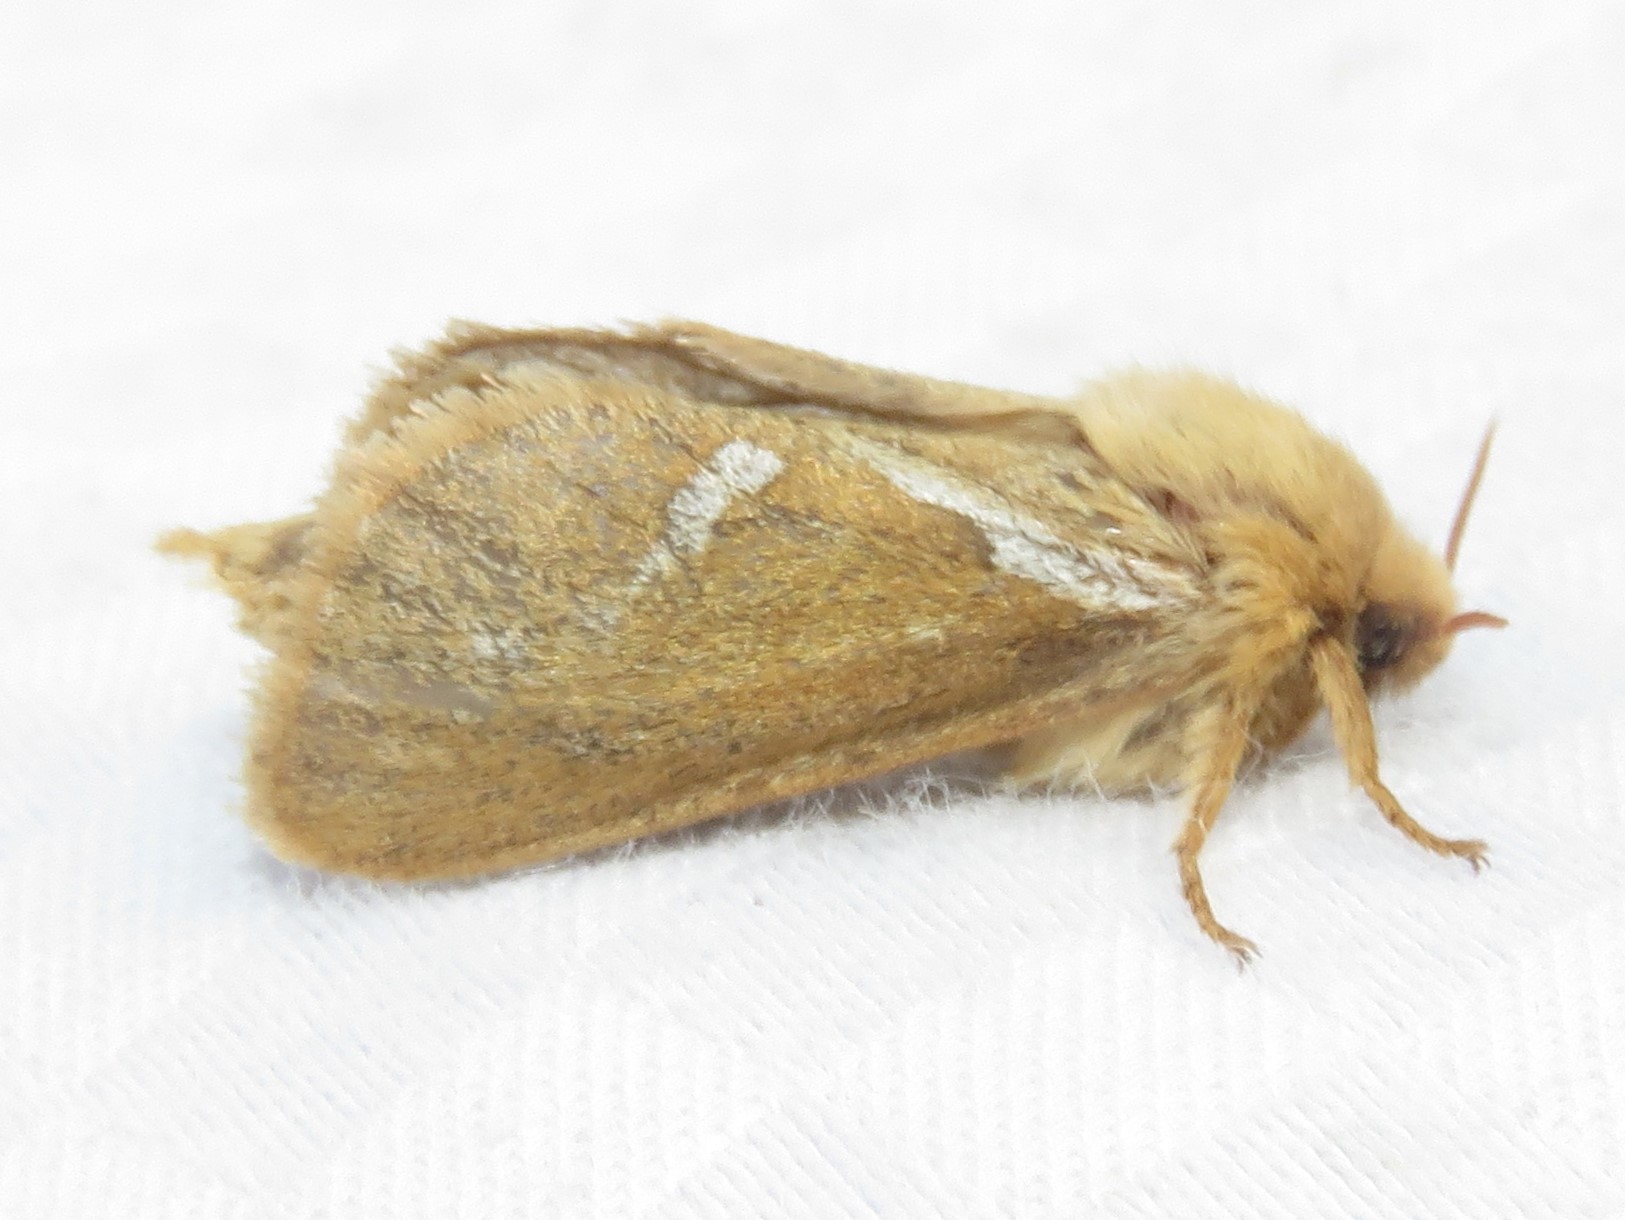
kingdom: Animalia
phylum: Arthropoda
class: Insecta
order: Lepidoptera
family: Hepialidae
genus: Korscheltellus
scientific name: Korscheltellus lupulina
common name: Common swift
